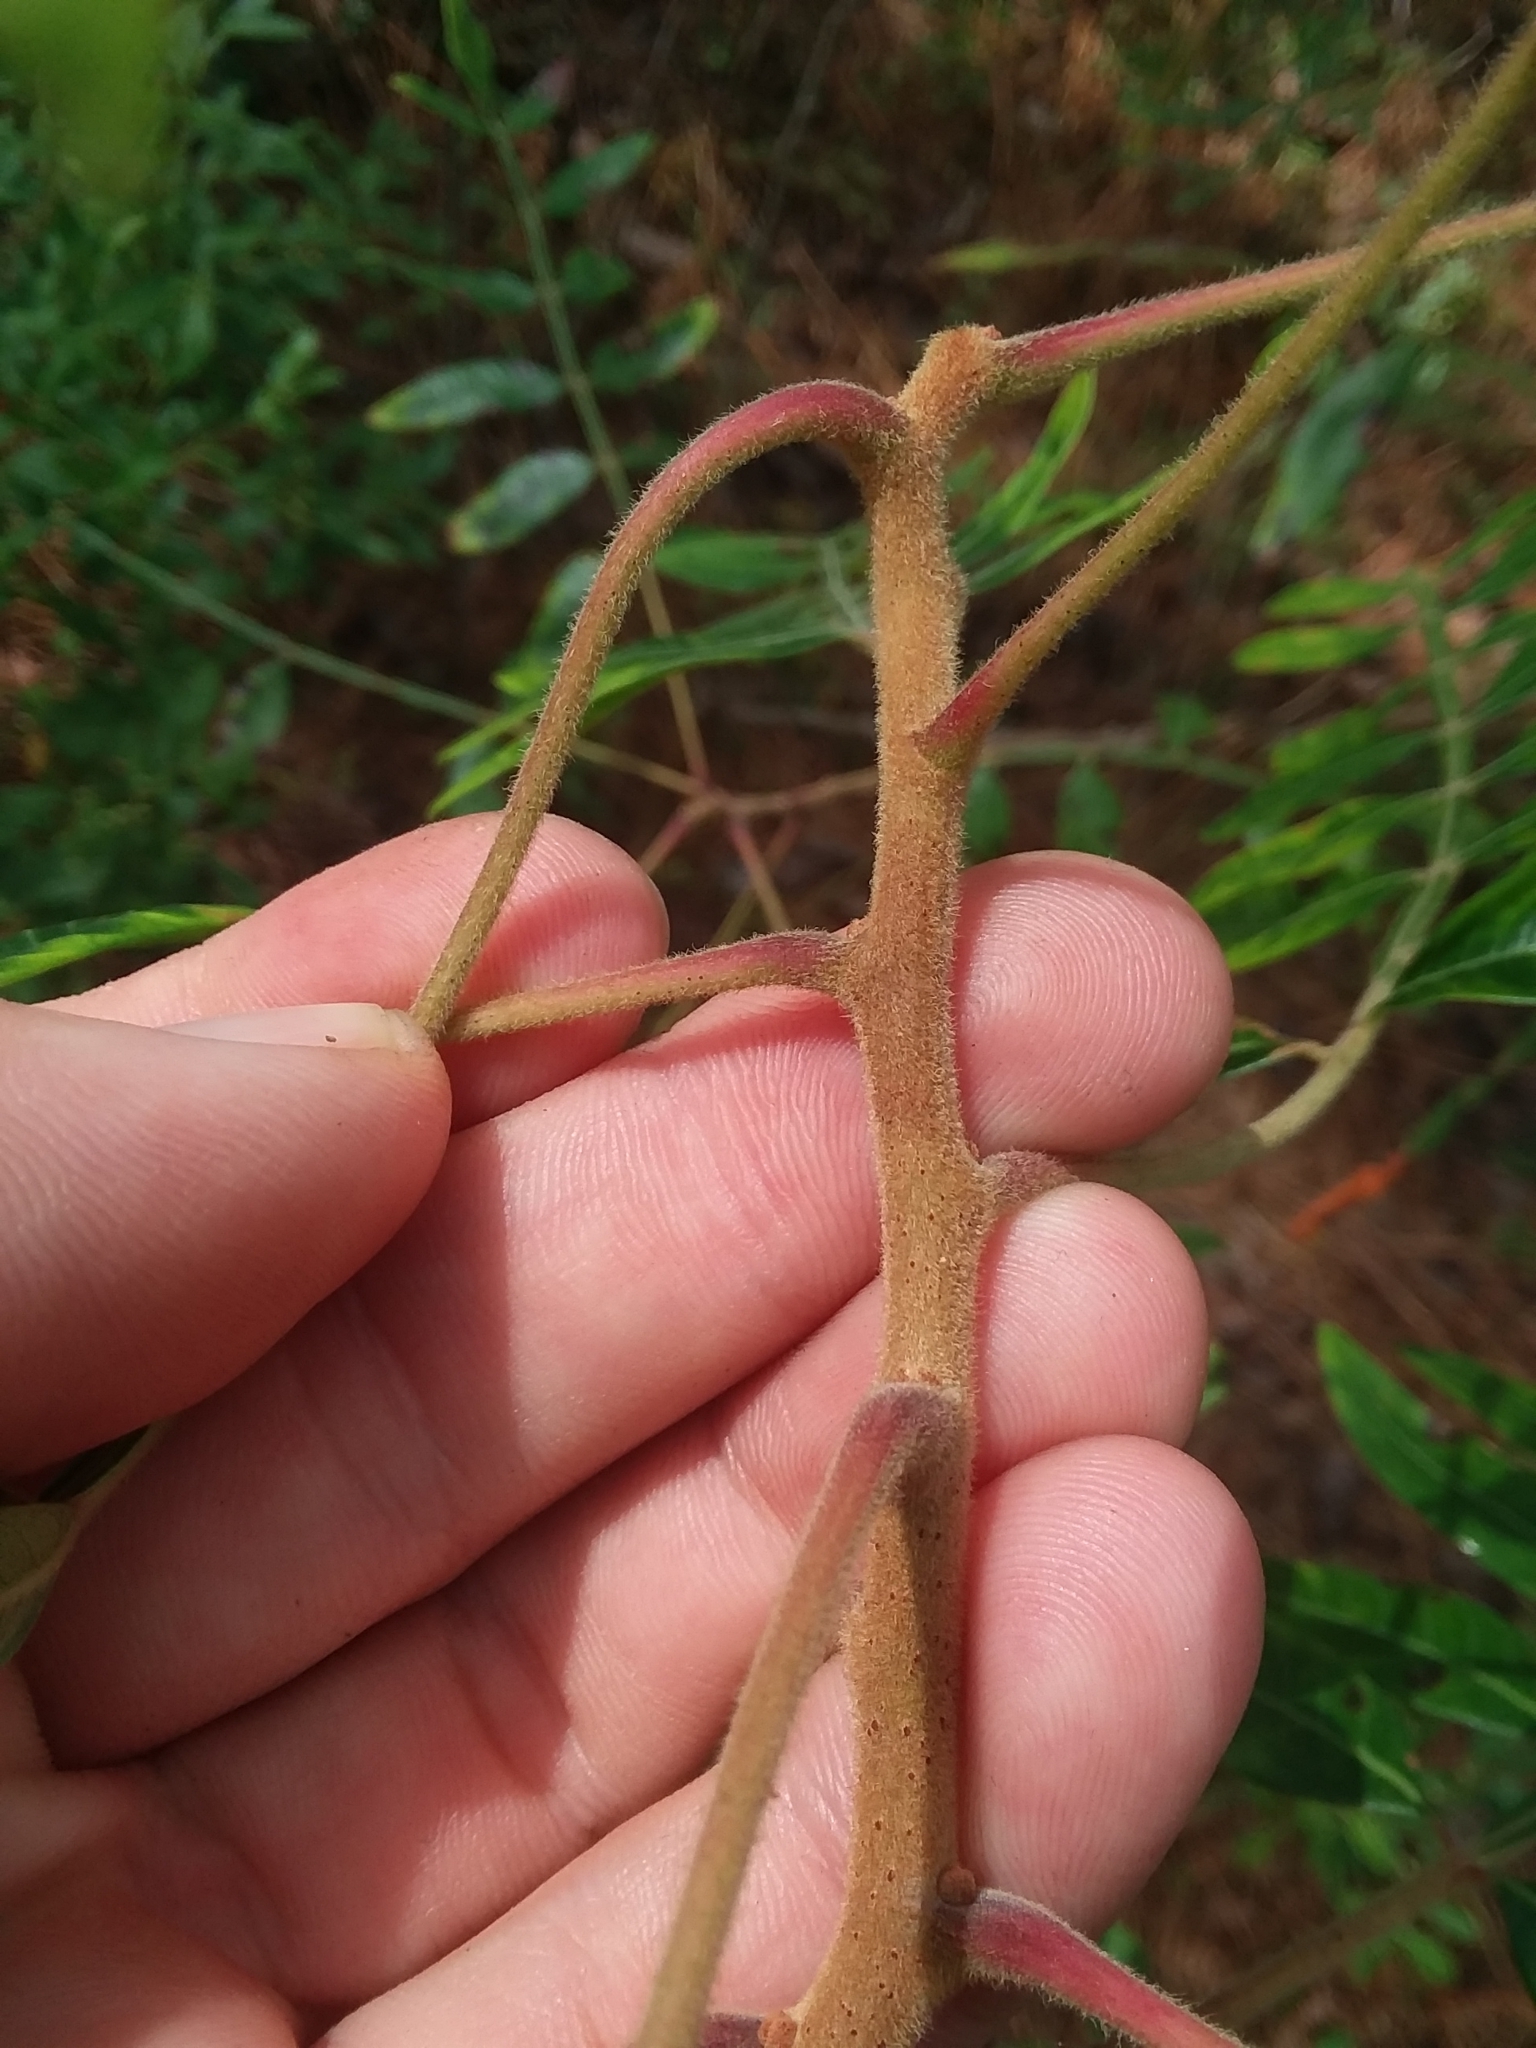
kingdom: Plantae
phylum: Tracheophyta
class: Magnoliopsida
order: Sapindales
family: Anacardiaceae
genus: Rhus
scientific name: Rhus copallina
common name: Shining sumac
